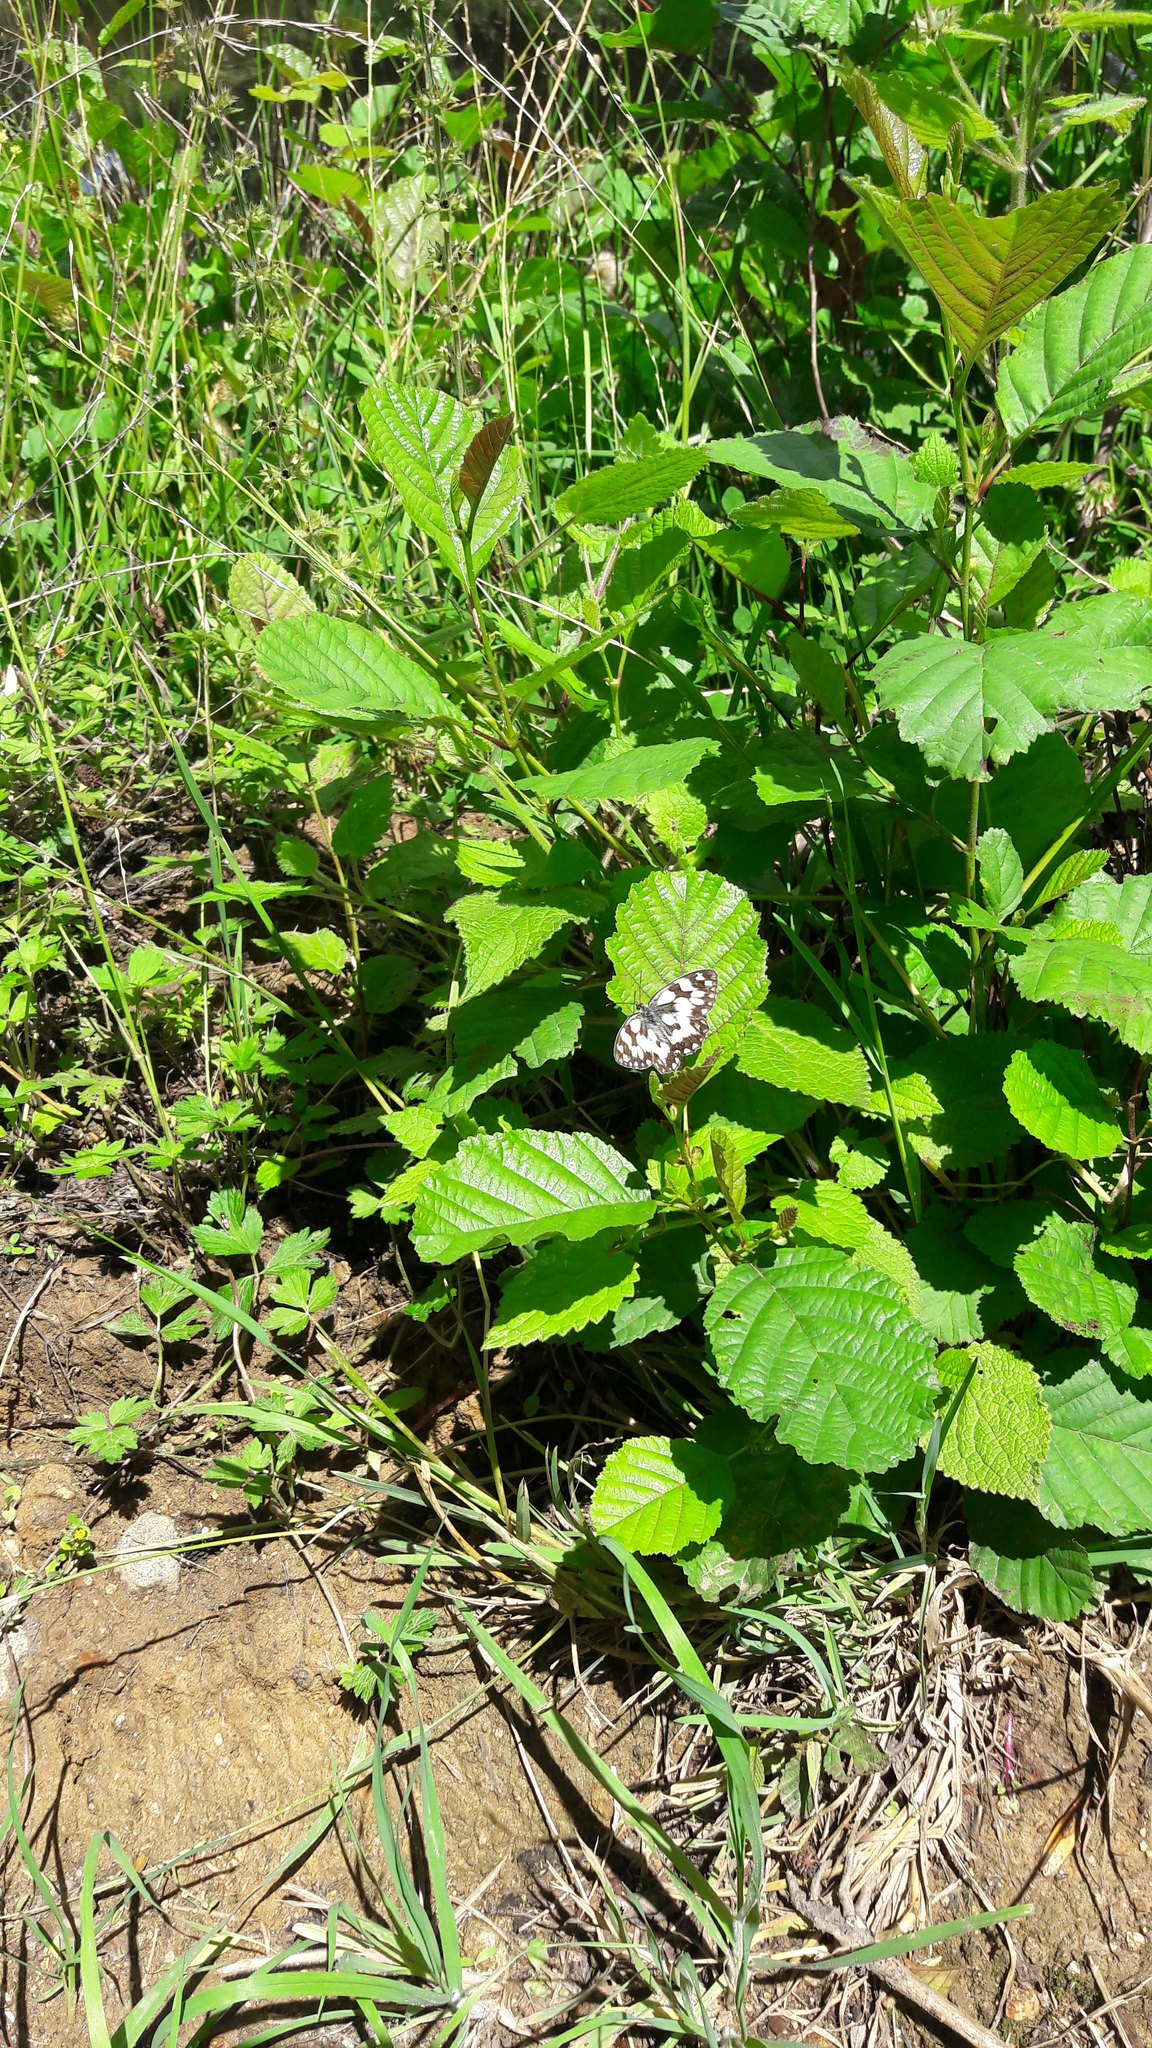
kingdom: Animalia
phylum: Arthropoda
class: Insecta
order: Lepidoptera
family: Nymphalidae
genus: Melanargia
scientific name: Melanargia galathea
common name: Marbled white
